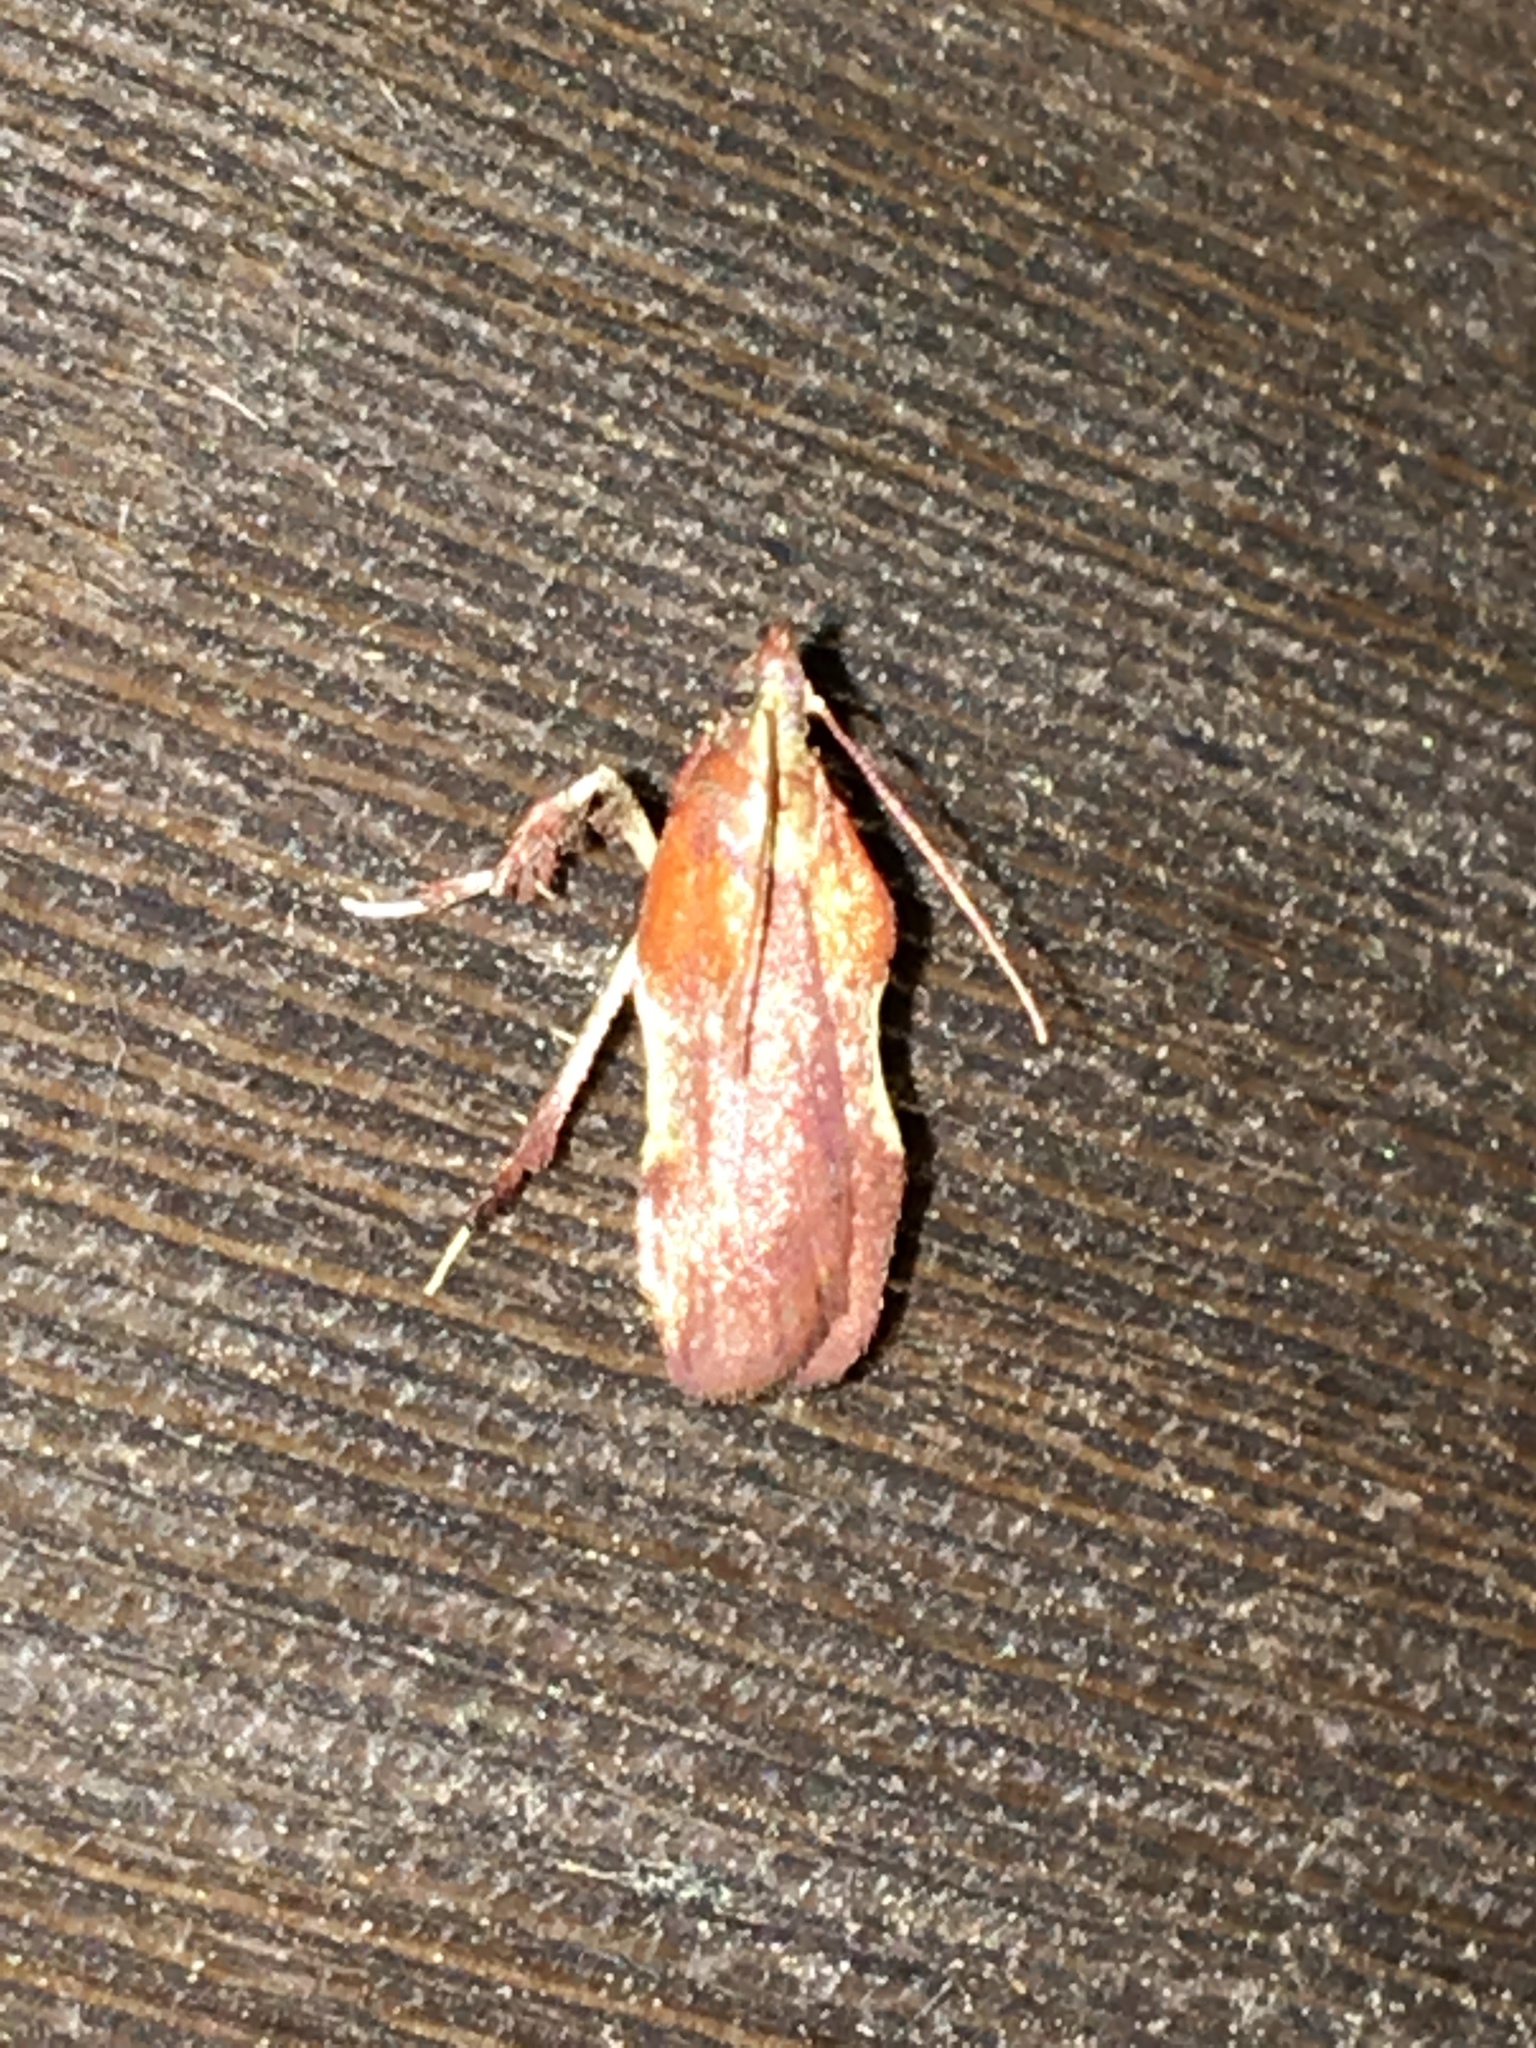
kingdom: Animalia
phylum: Arthropoda
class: Insecta
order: Lepidoptera
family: Pyralidae
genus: Galasa
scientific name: Galasa nigrinodis
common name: Boxwood leaftier moth
